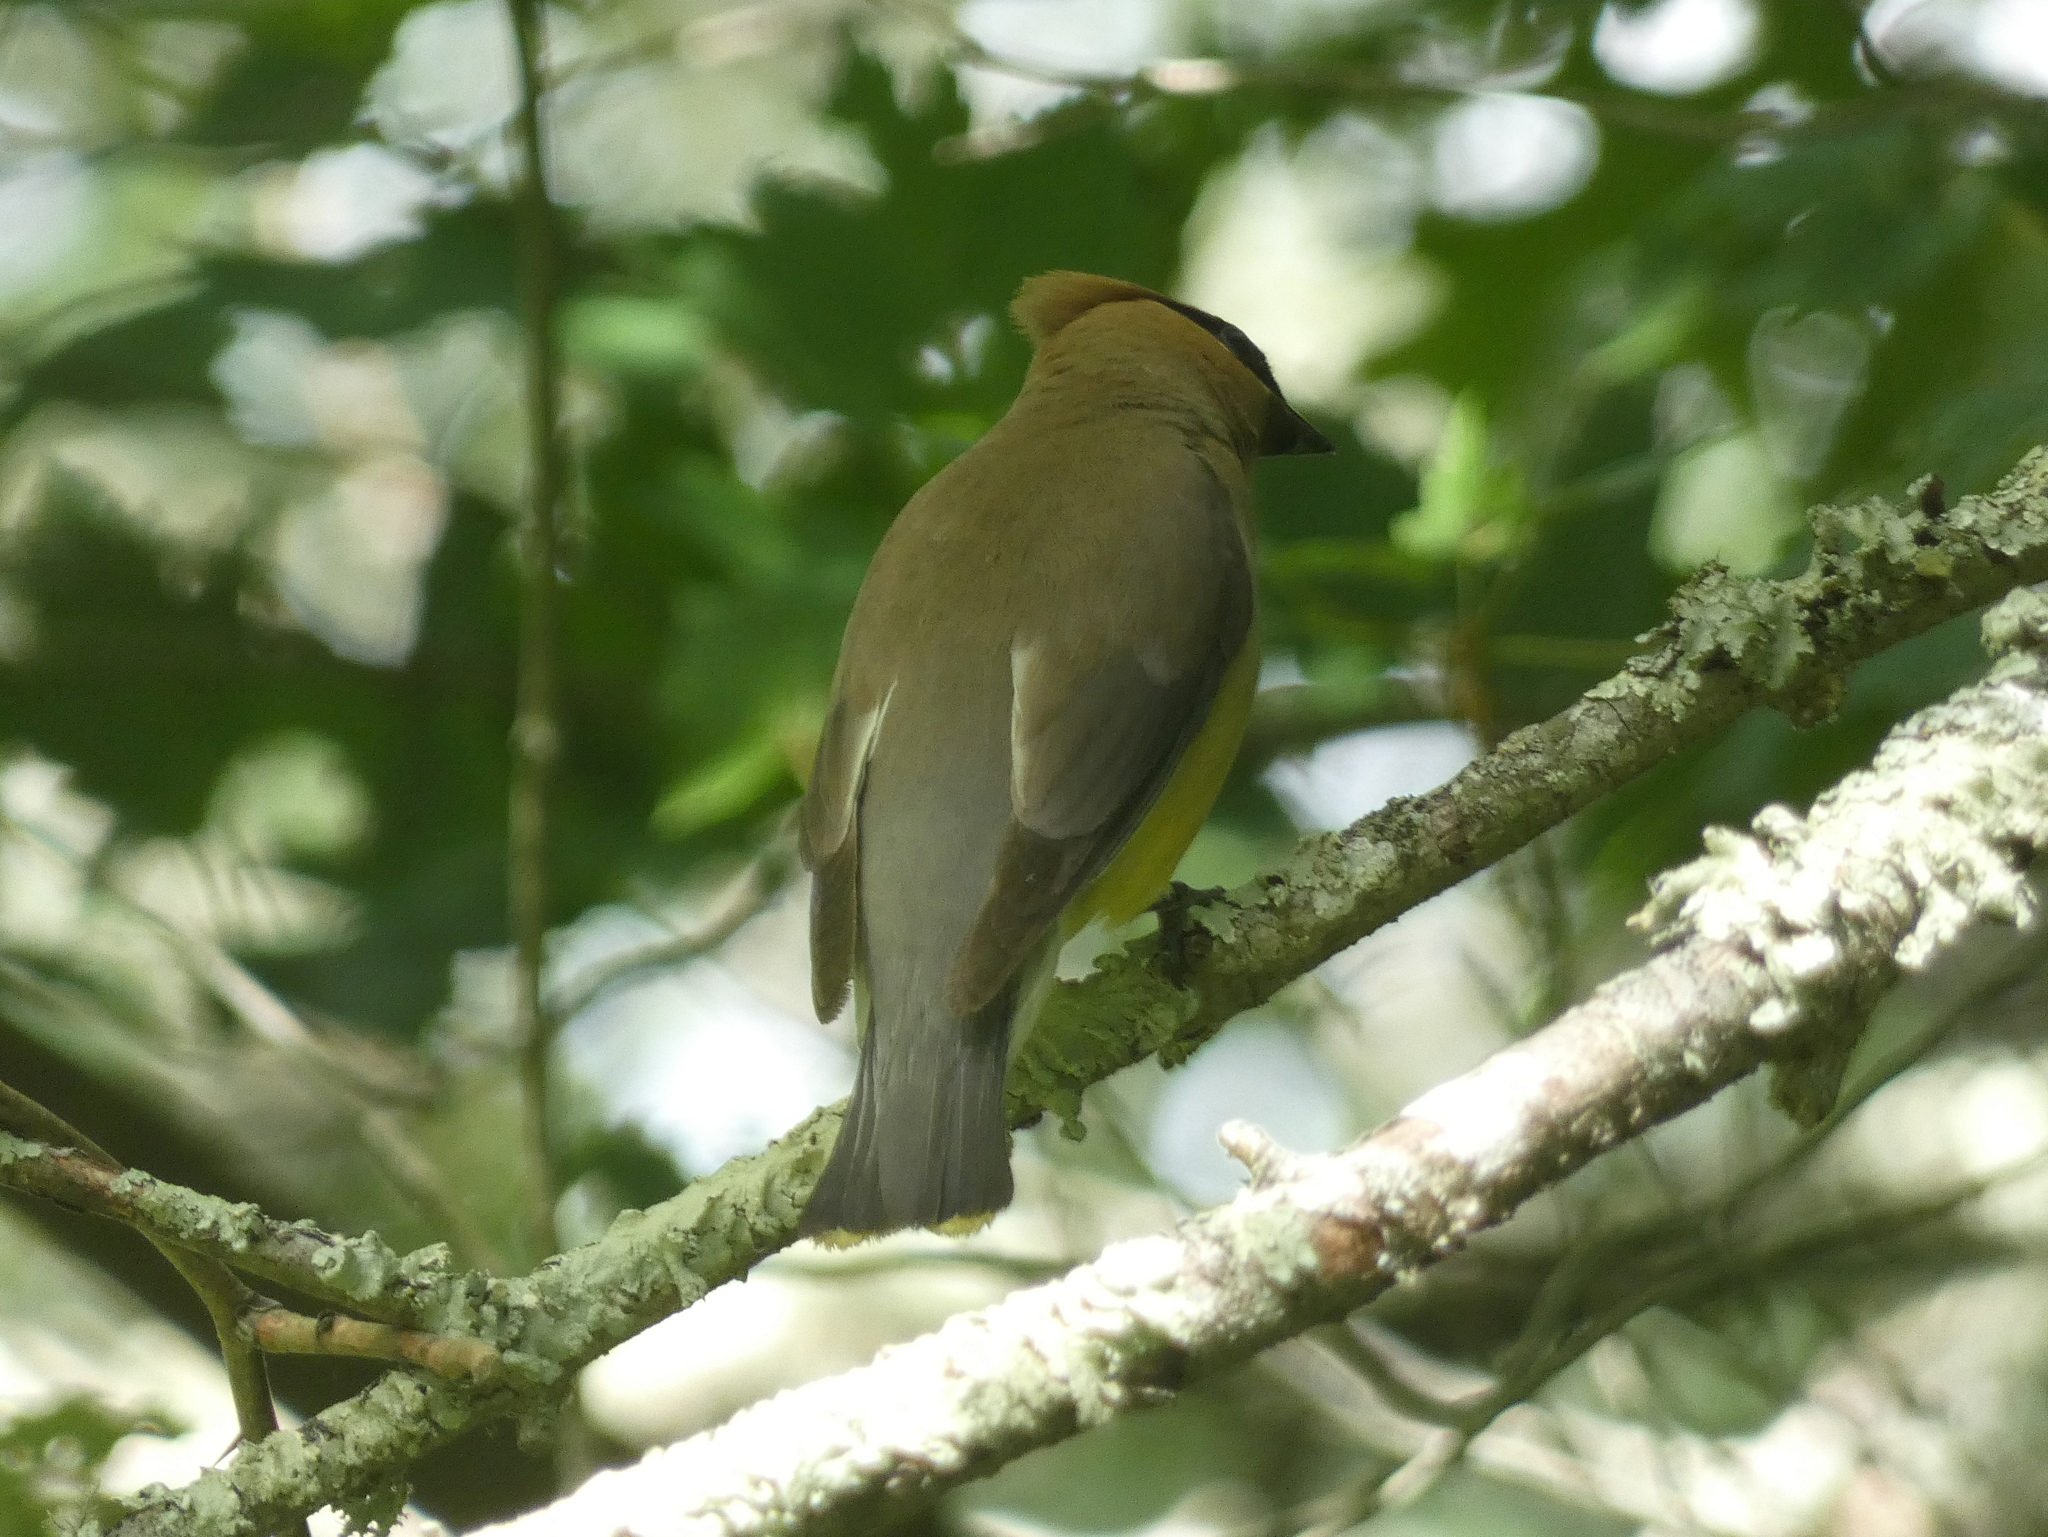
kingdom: Animalia
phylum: Chordata
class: Aves
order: Passeriformes
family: Bombycillidae
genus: Bombycilla
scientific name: Bombycilla cedrorum
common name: Cedar waxwing
